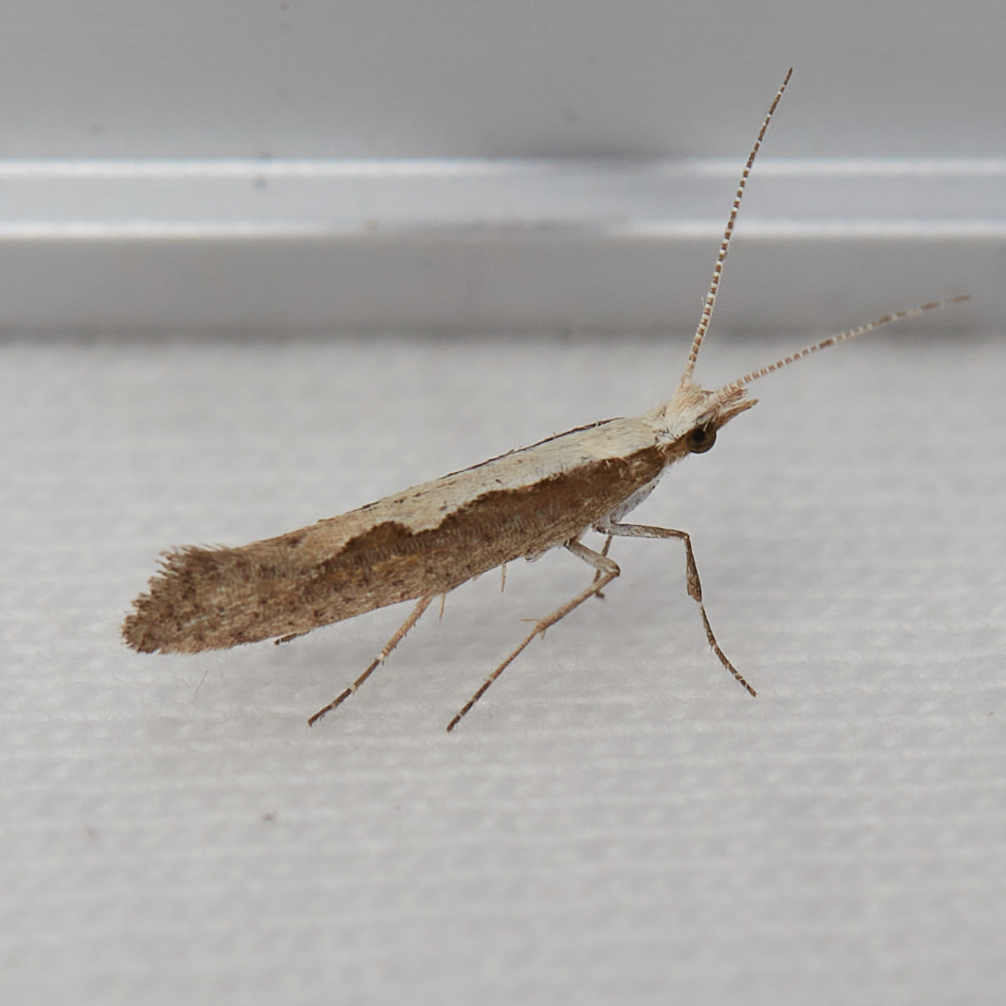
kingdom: Animalia
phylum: Arthropoda
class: Insecta
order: Lepidoptera
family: Plutellidae
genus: Plutella
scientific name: Plutella xylostella
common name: Diamond-back moth
